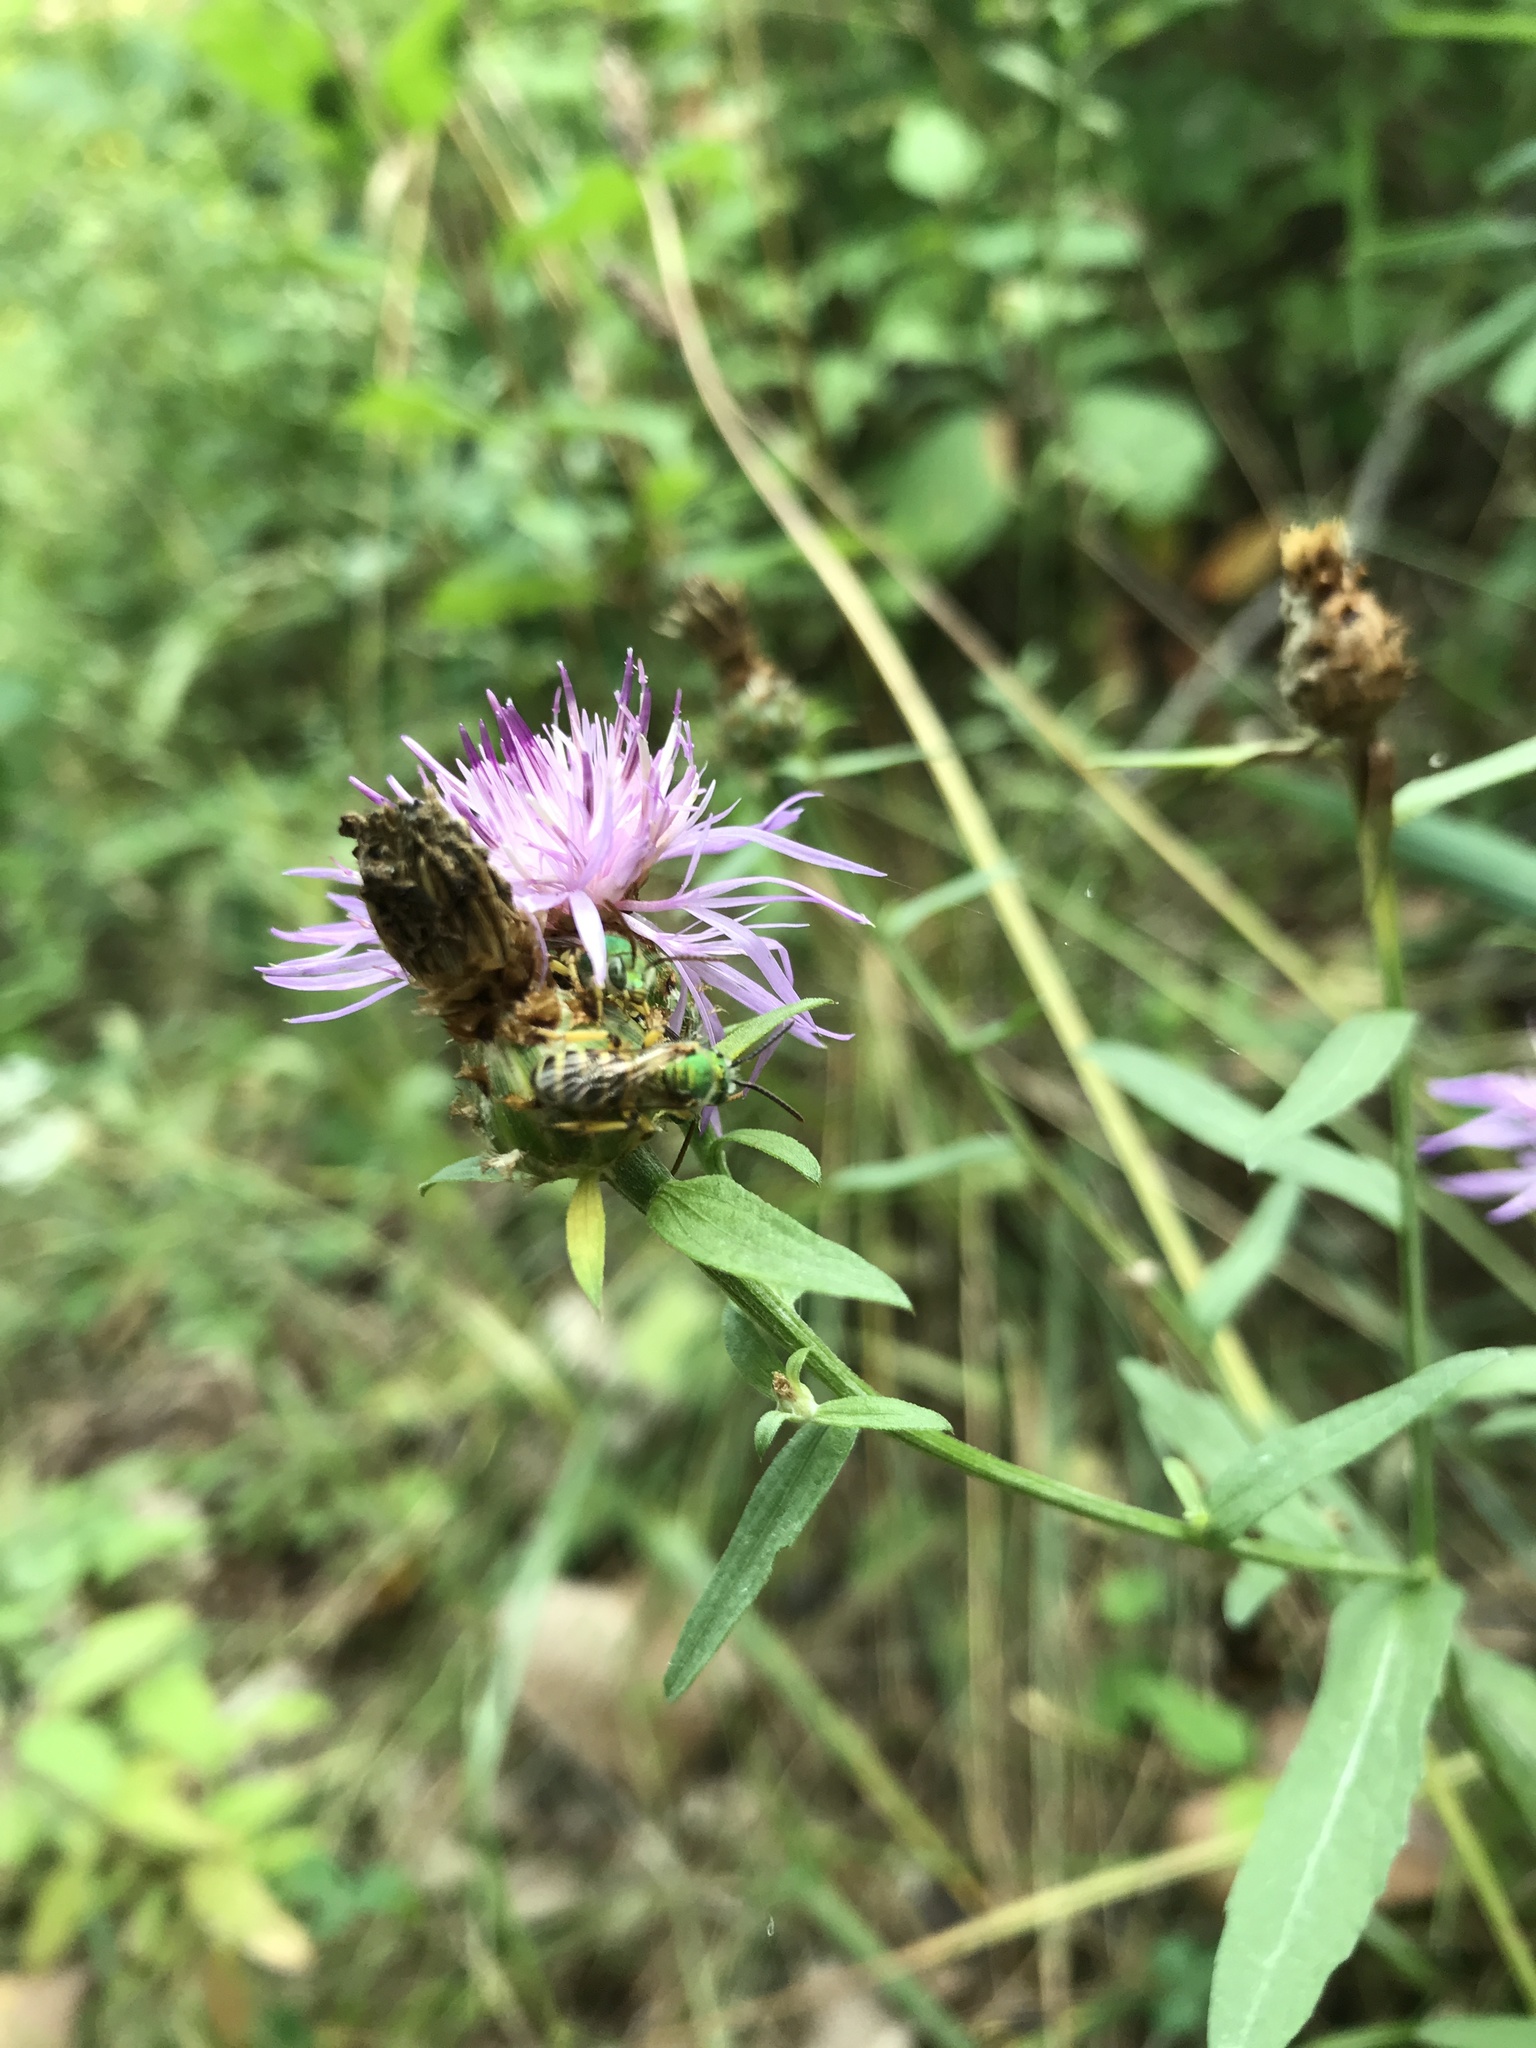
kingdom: Animalia
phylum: Arthropoda
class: Insecta
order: Hymenoptera
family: Halictidae
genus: Agapostemon
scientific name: Agapostemon virescens
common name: Bicolored striped sweat bee
